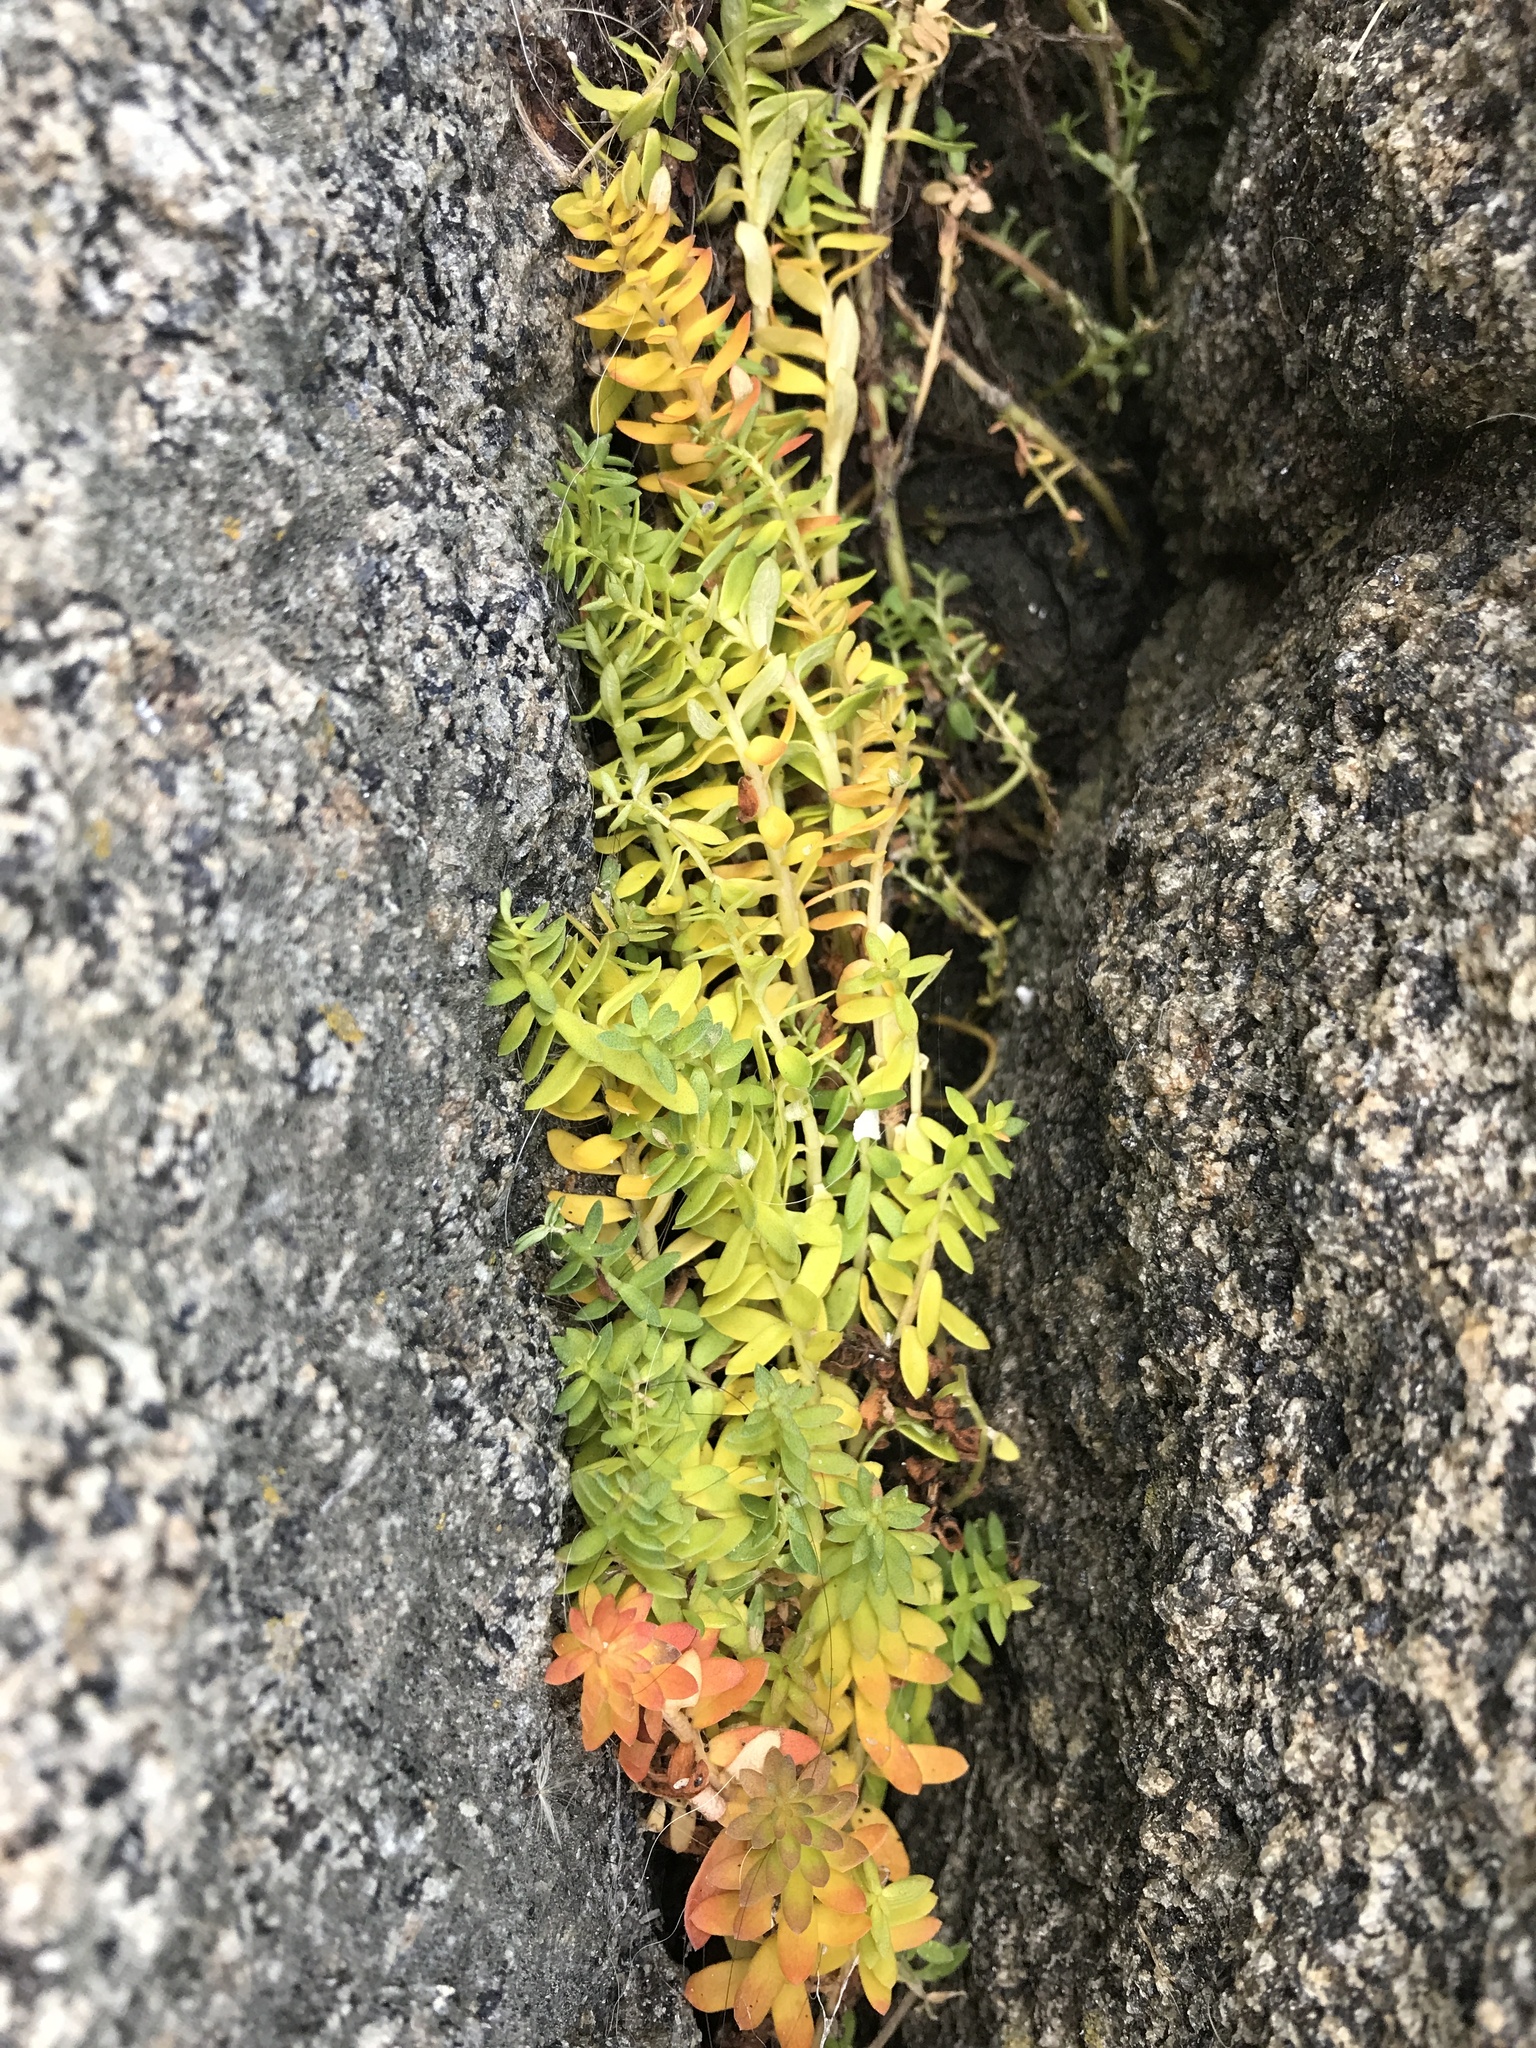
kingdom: Plantae
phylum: Tracheophyta
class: Magnoliopsida
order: Ericales
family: Primulaceae
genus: Lysimachia
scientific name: Lysimachia maritima
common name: Sea milkwort
